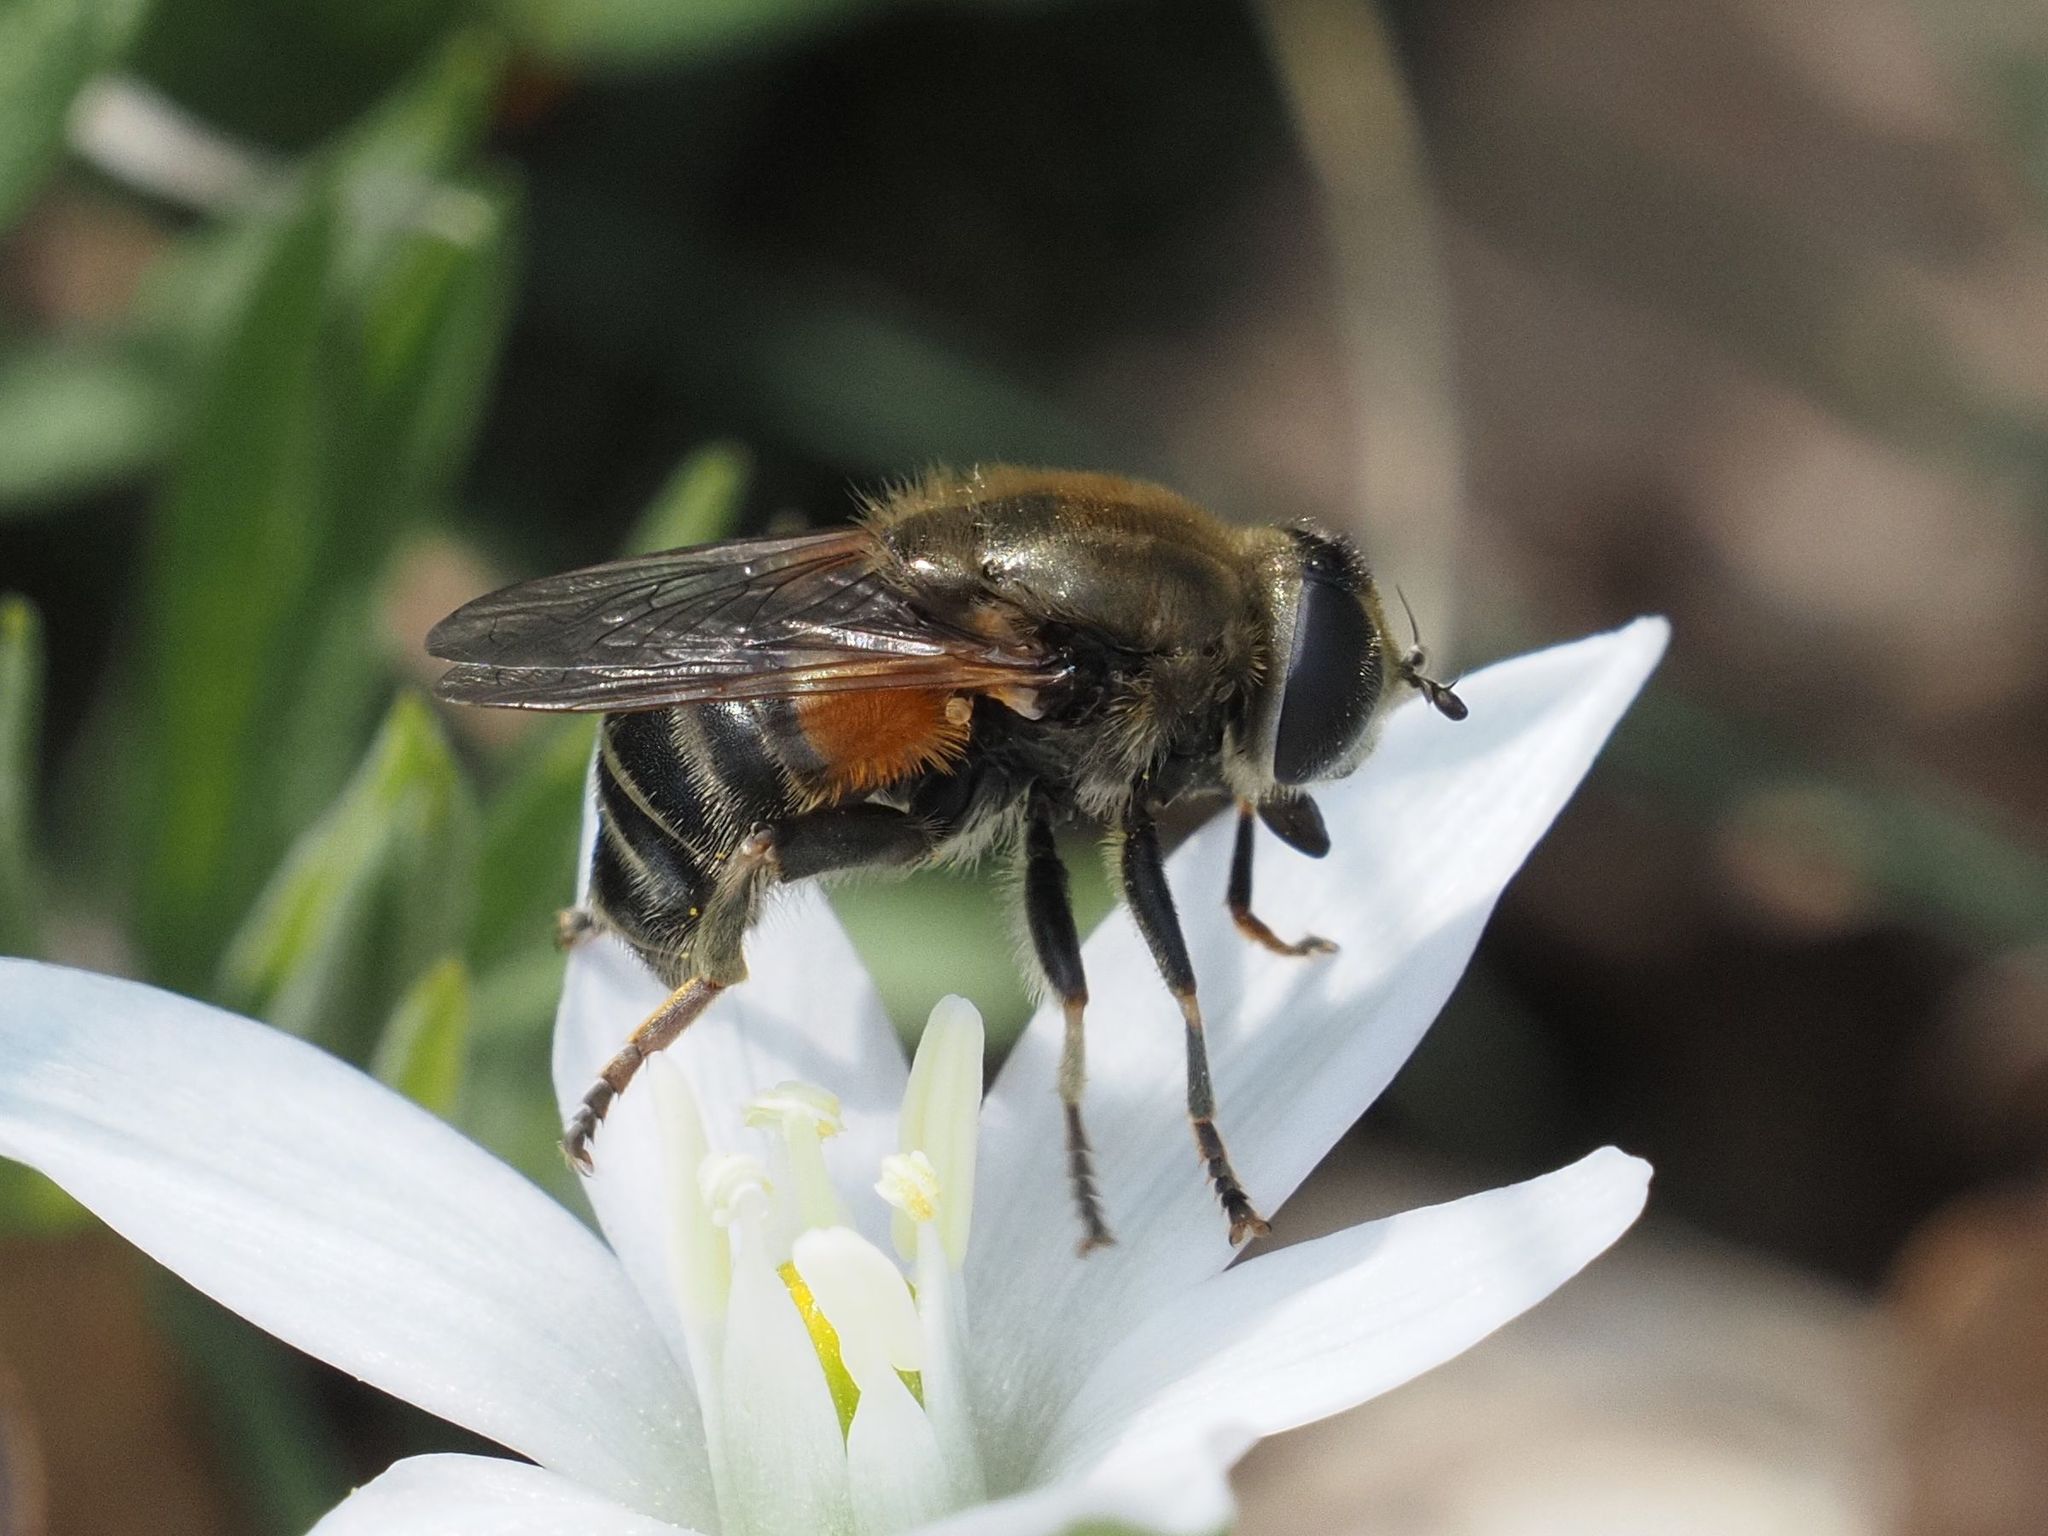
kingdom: Animalia
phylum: Arthropoda
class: Insecta
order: Diptera
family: Syrphidae
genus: Merodon
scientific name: Merodon avidus
